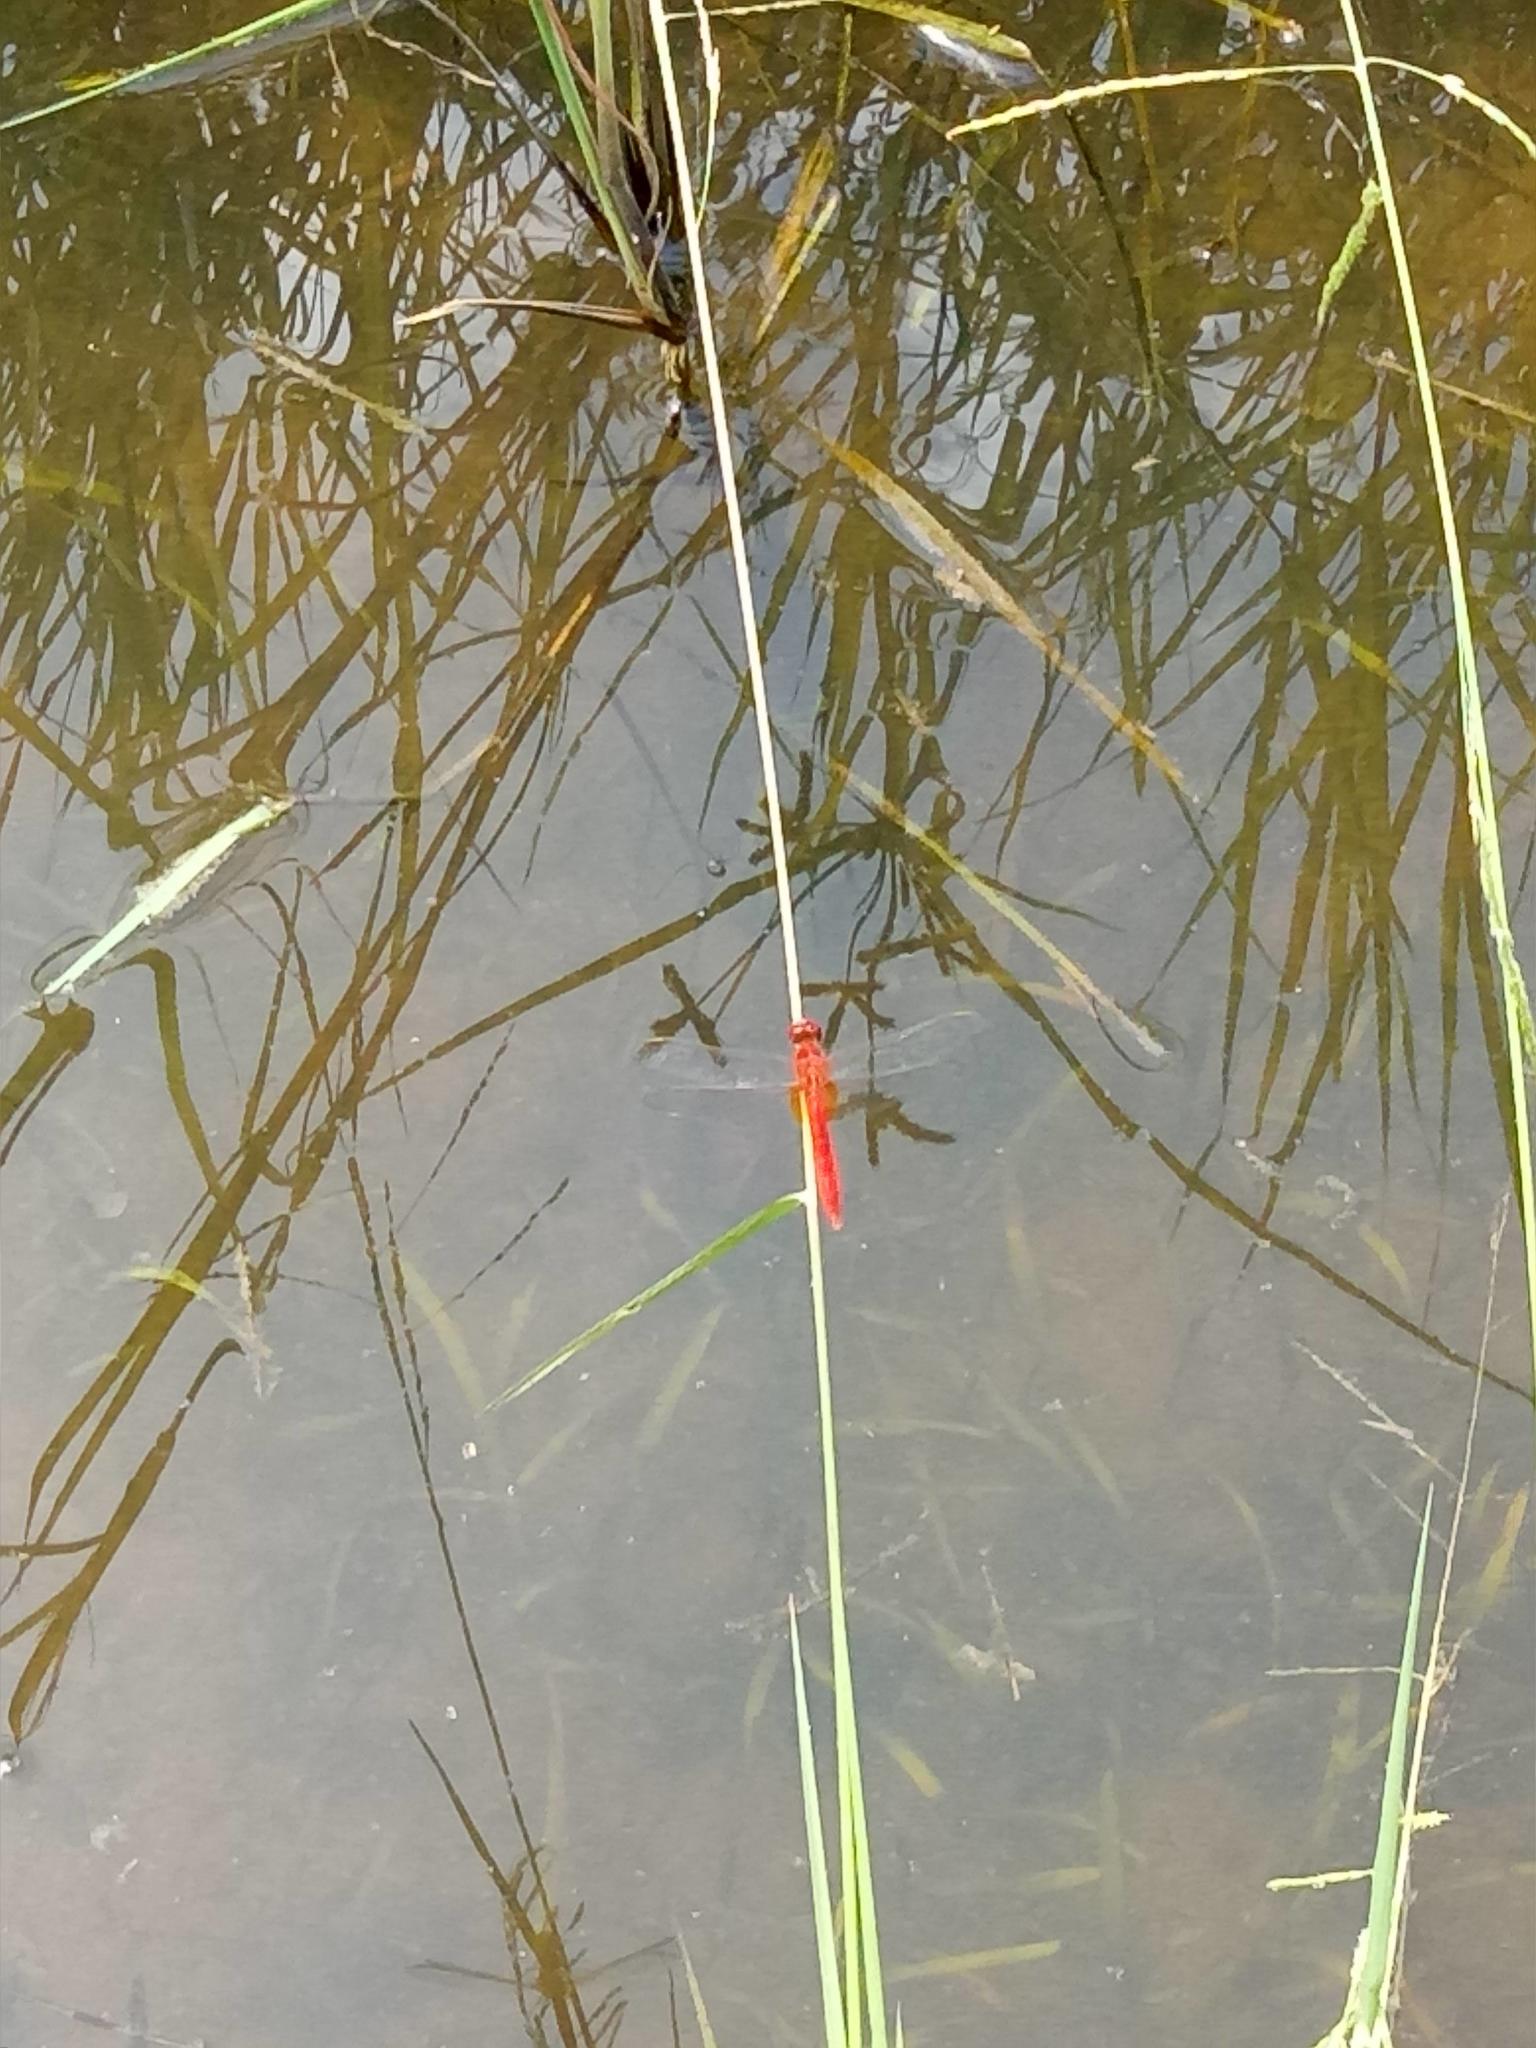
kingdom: Animalia
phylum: Arthropoda
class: Insecta
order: Odonata
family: Libellulidae
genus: Crocothemis
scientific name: Crocothemis servilia
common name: Scarlet skimmer
